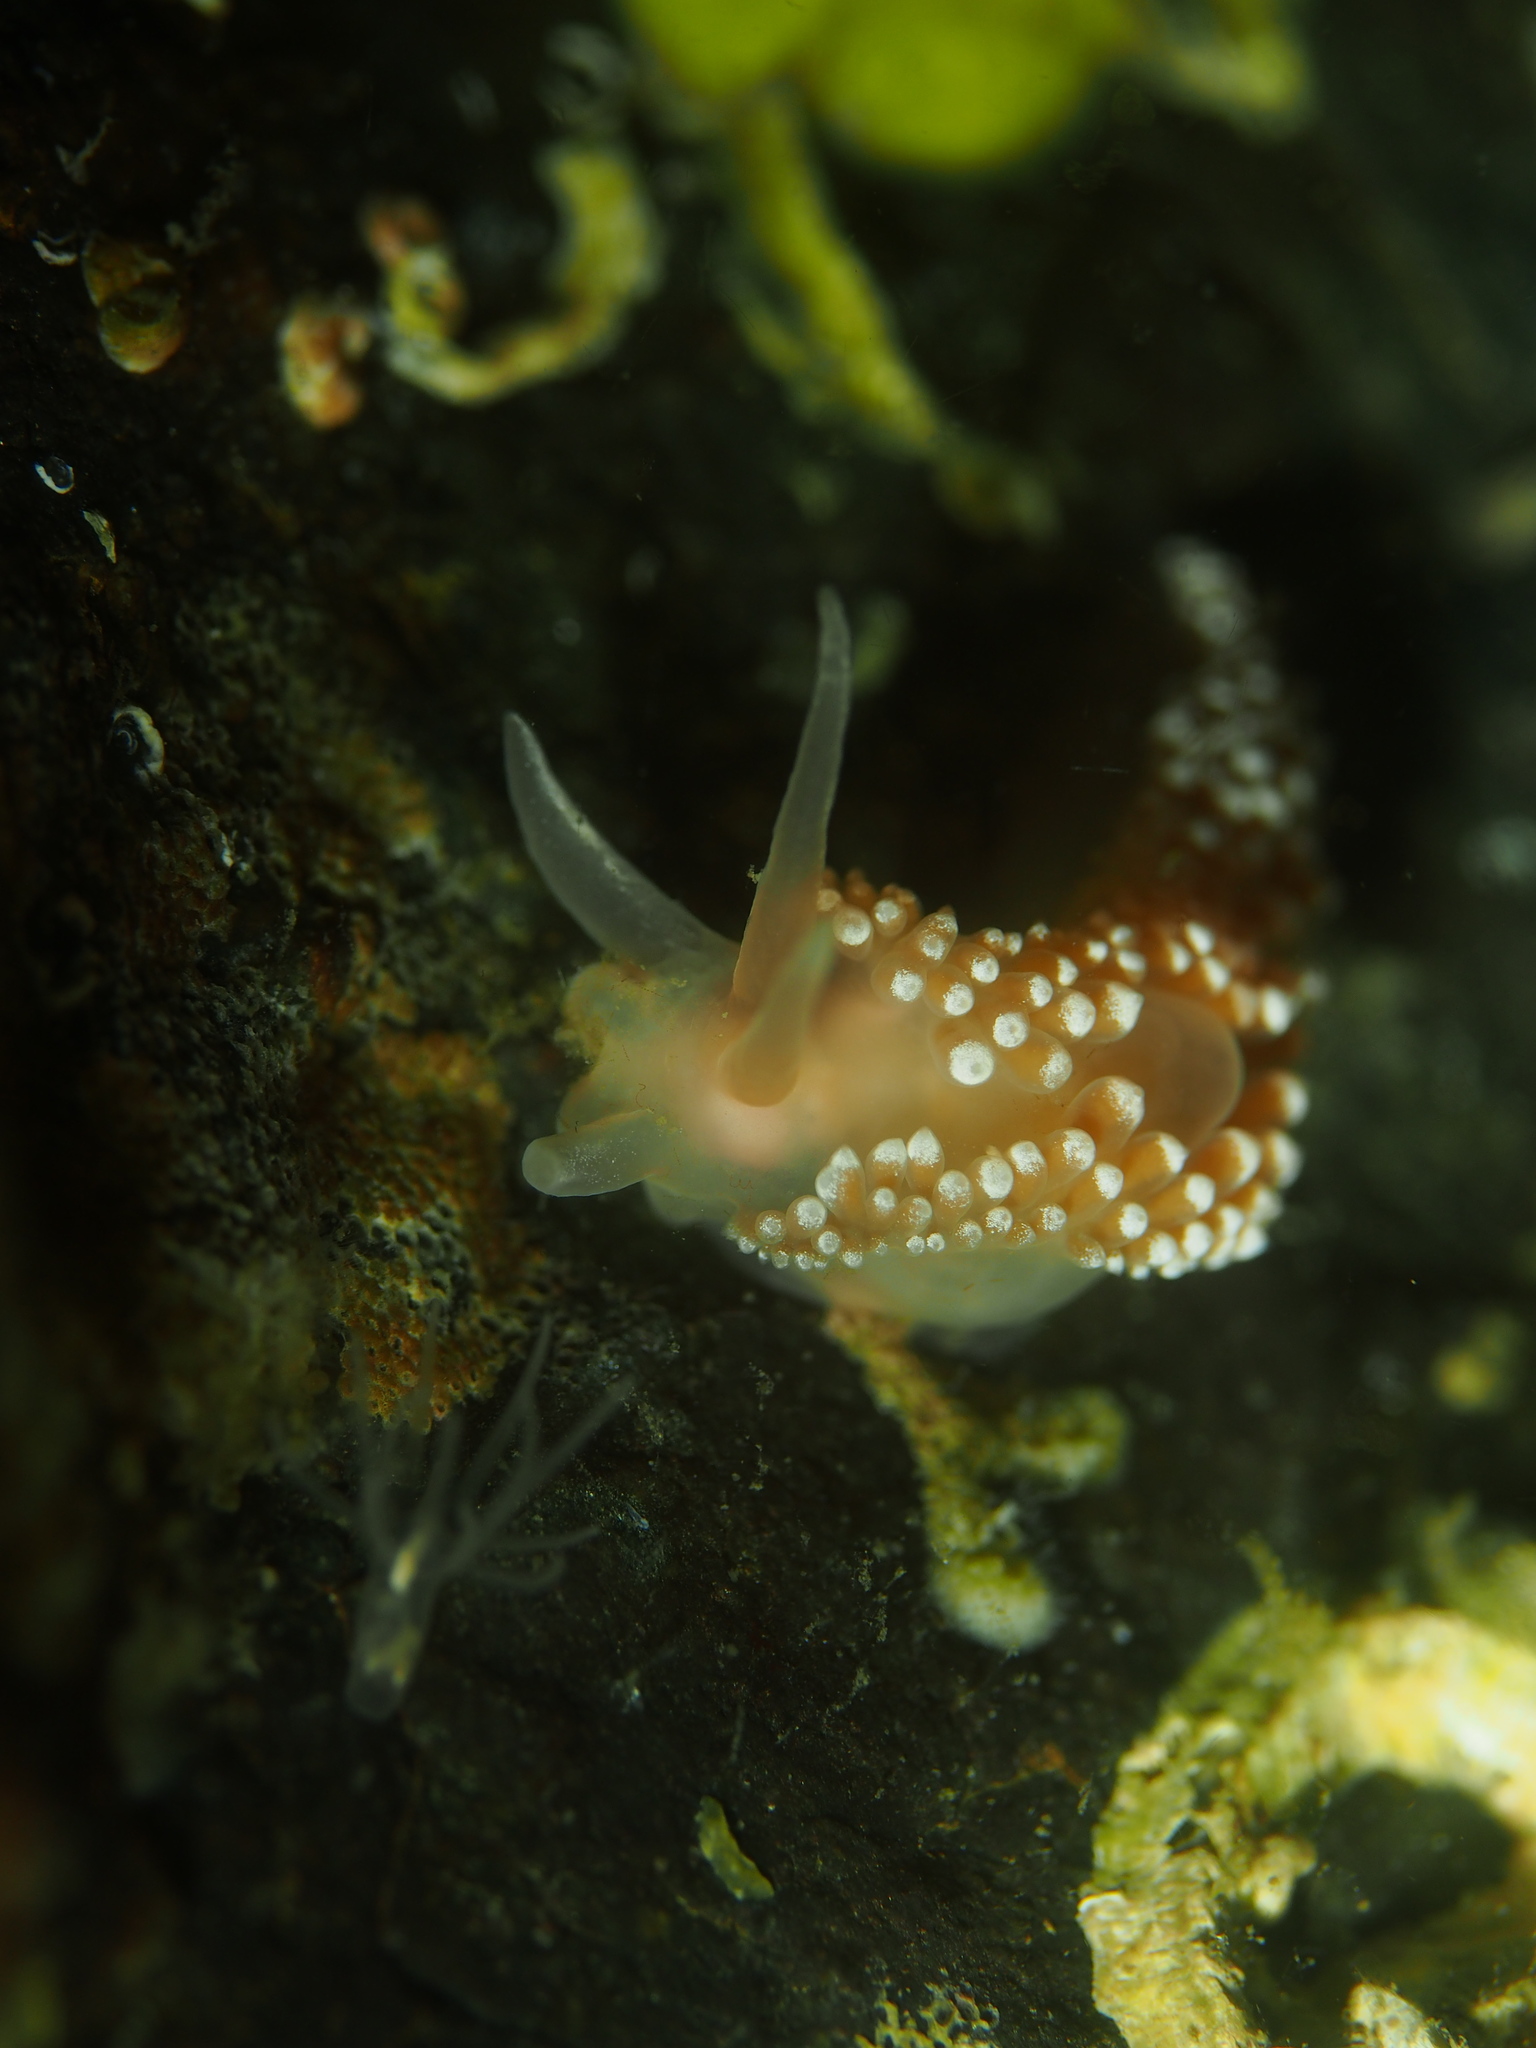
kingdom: Animalia
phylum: Mollusca
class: Gastropoda
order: Nudibranchia
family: Coryphellidae
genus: Coryphella
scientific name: Coryphella verrucosa
